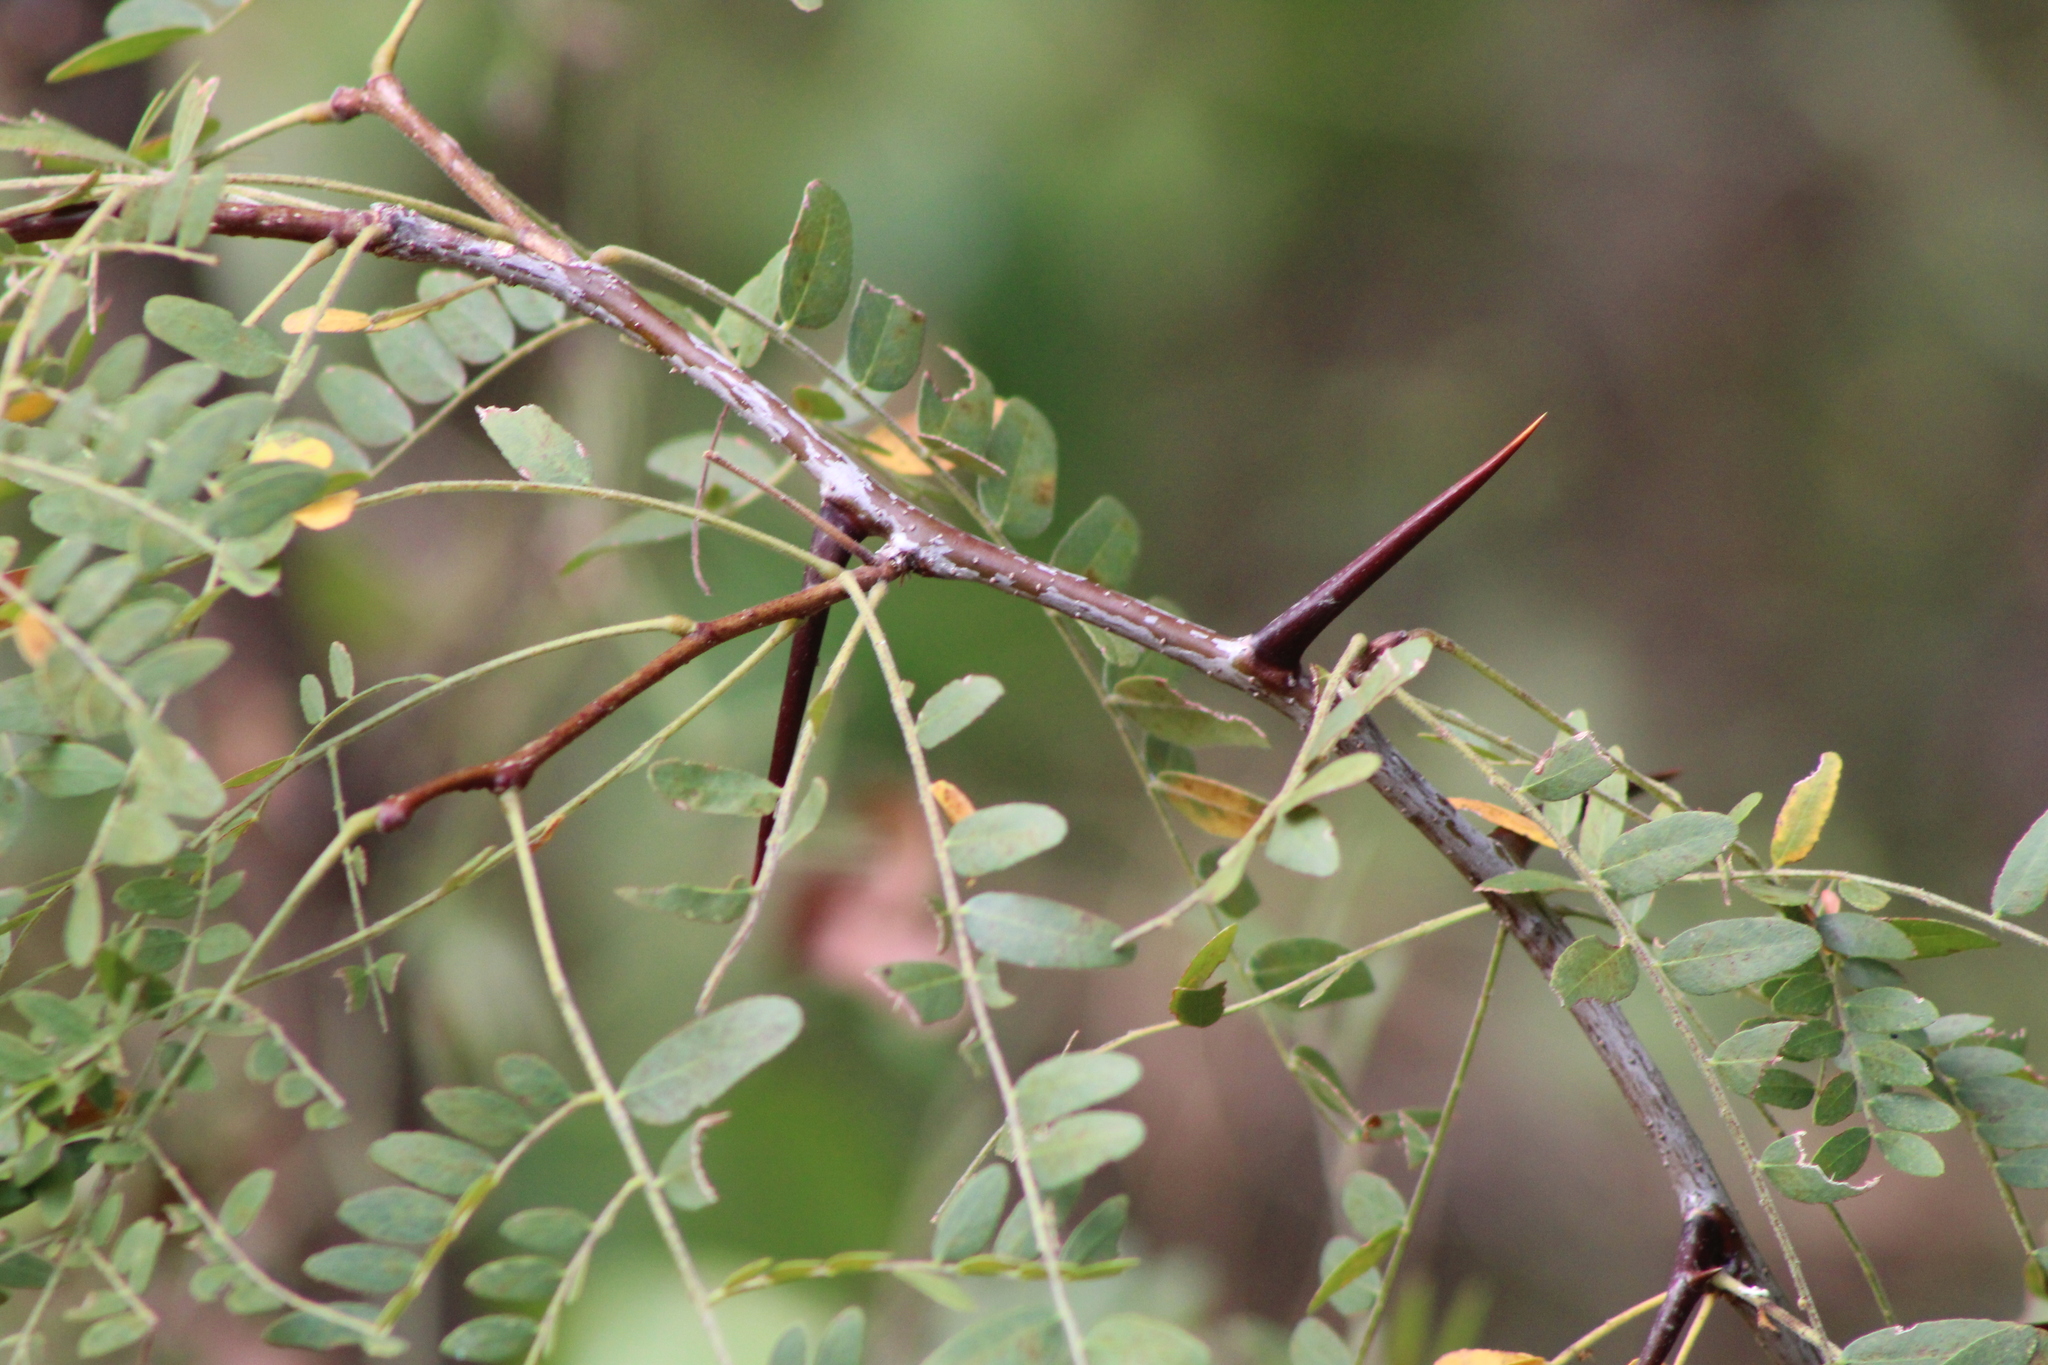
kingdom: Plantae
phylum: Tracheophyta
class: Magnoliopsida
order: Fabales
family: Fabaceae
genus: Gleditsia
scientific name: Gleditsia triacanthos
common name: Common honeylocust
